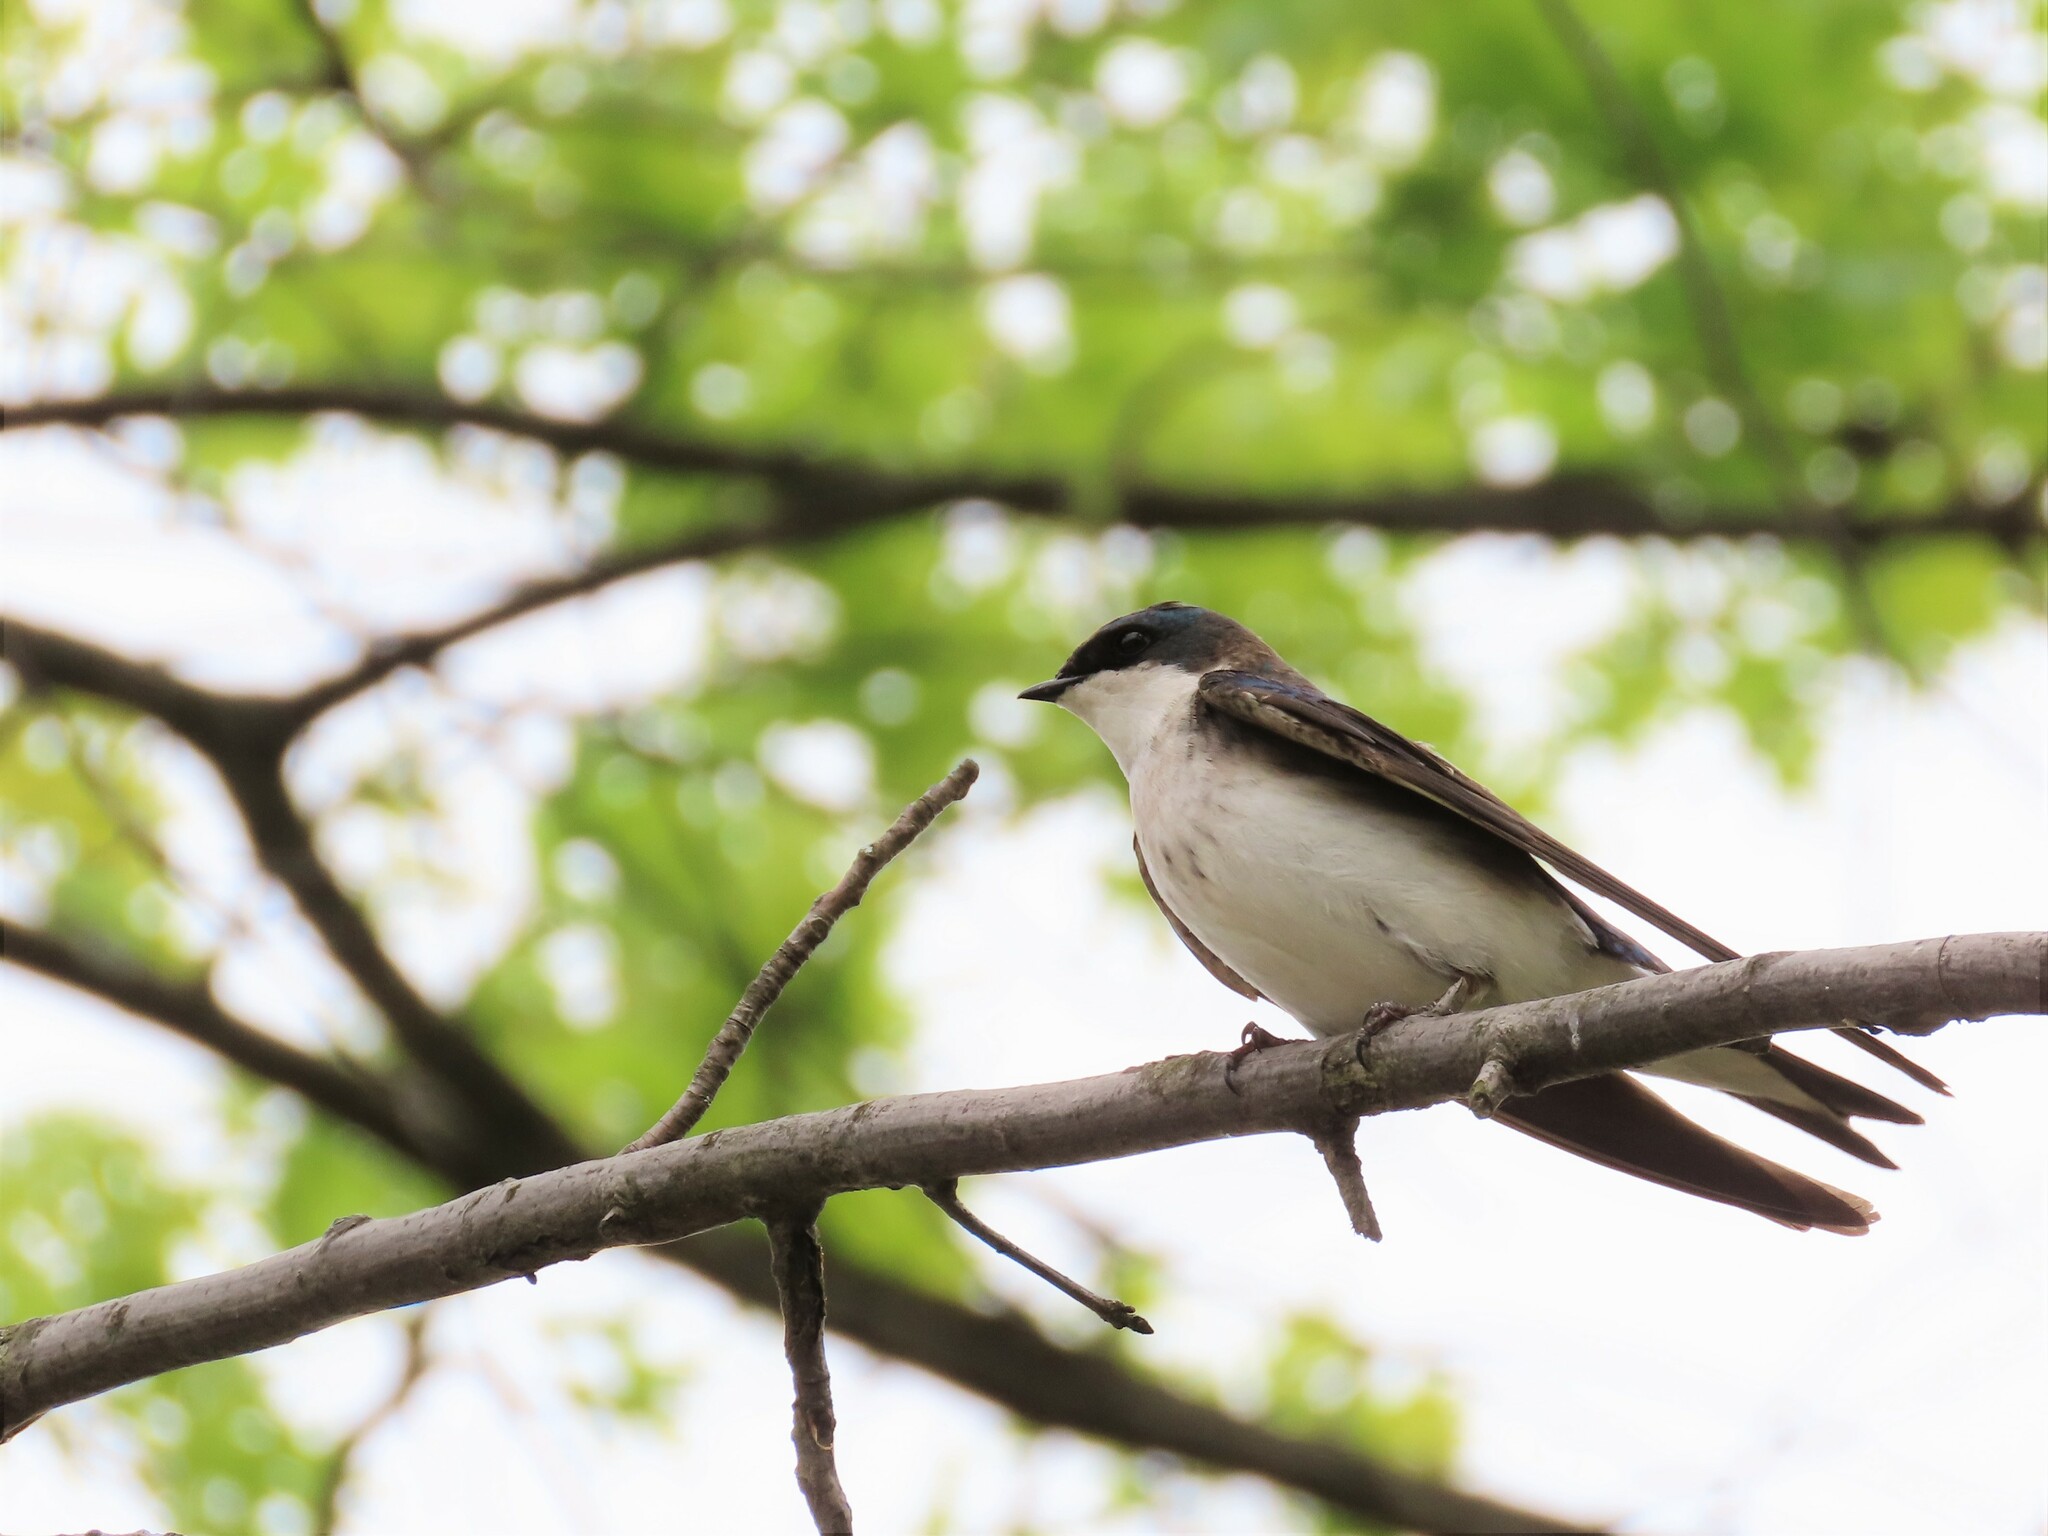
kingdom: Animalia
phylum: Chordata
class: Aves
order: Passeriformes
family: Hirundinidae
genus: Tachycineta
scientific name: Tachycineta bicolor
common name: Tree swallow
